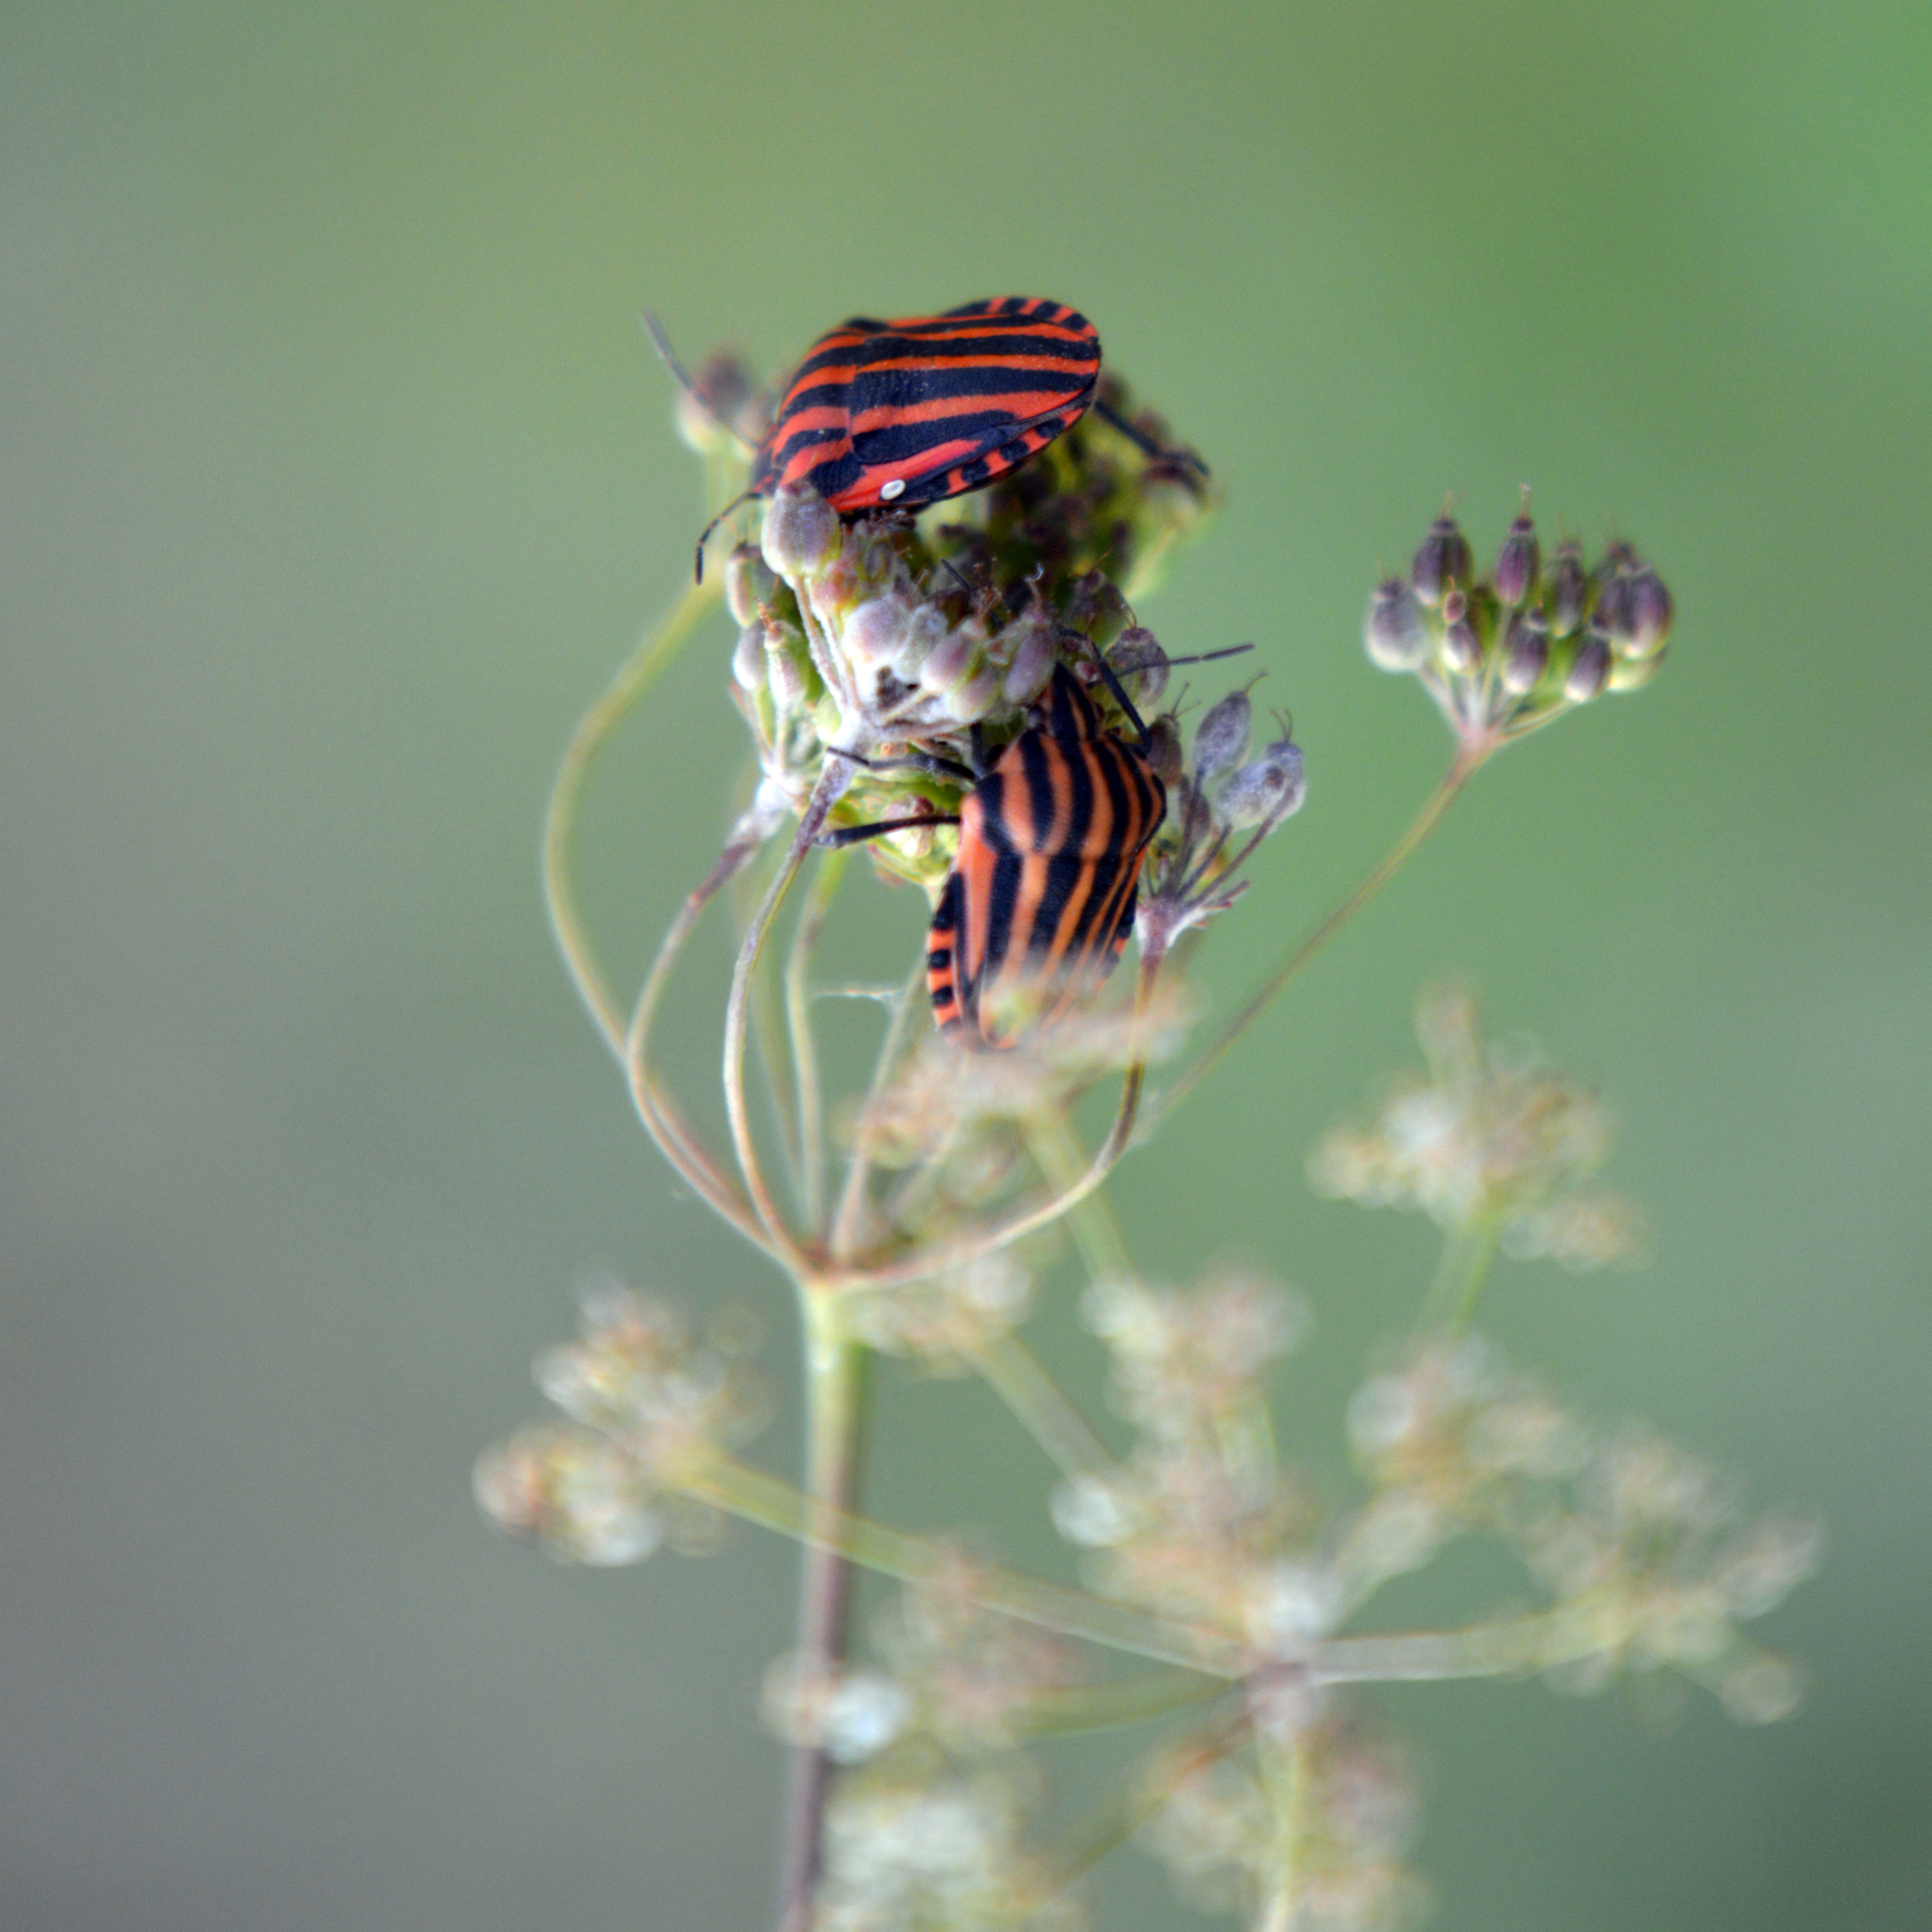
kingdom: Animalia
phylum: Arthropoda
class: Insecta
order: Hemiptera
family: Pentatomidae
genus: Graphosoma
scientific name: Graphosoma italicum
